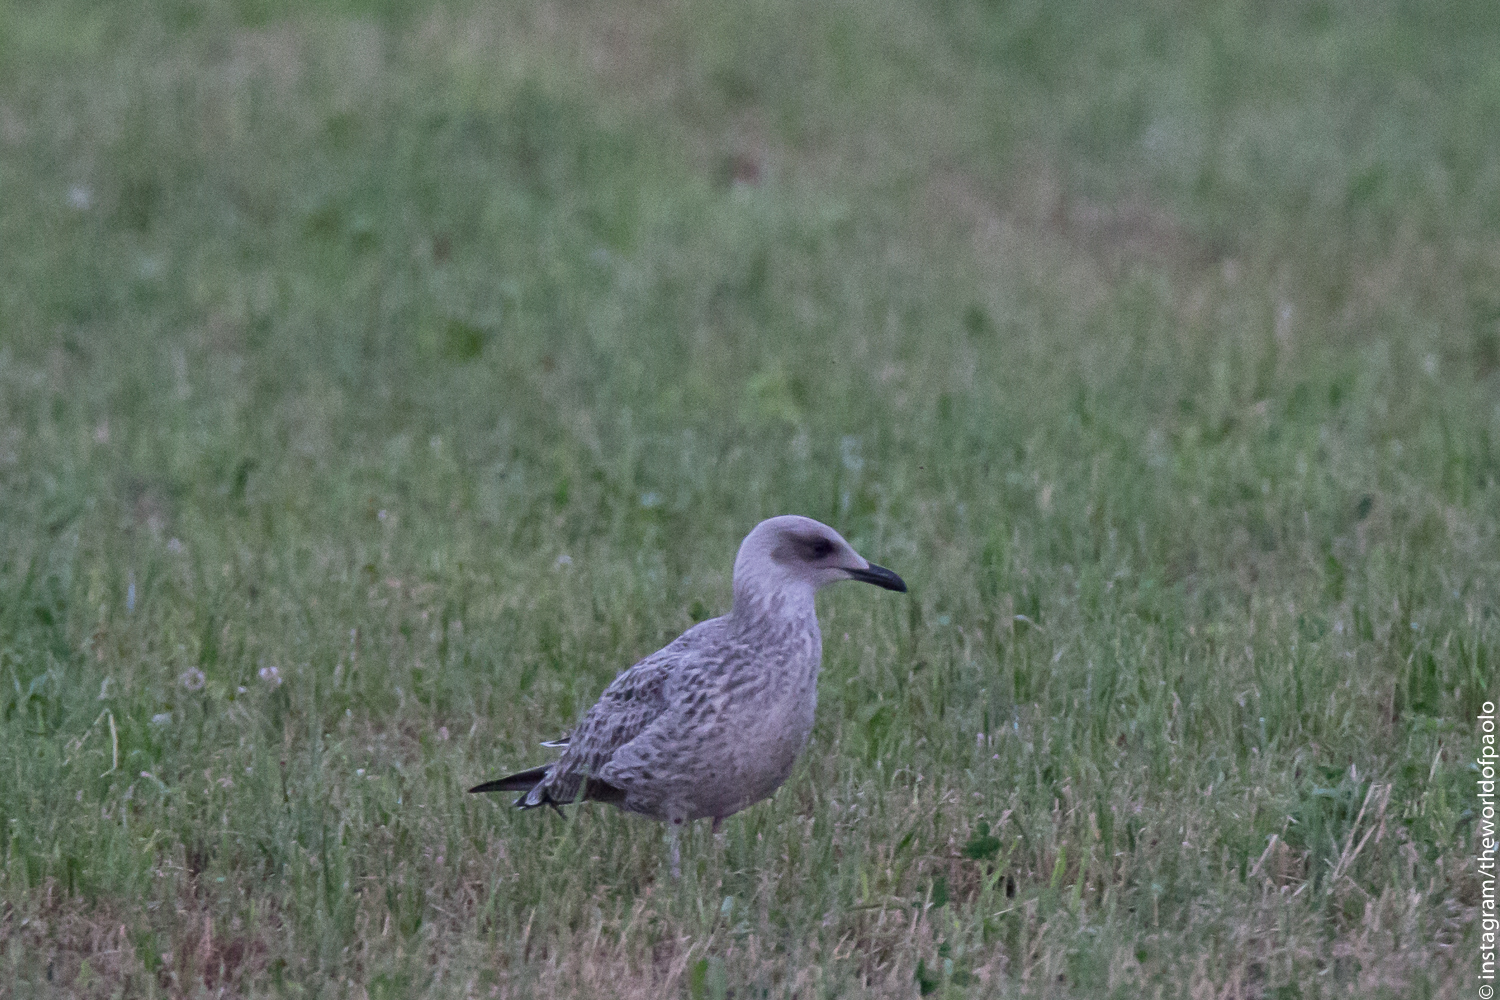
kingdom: Animalia
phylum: Chordata
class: Aves
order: Charadriiformes
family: Laridae
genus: Larus
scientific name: Larus michahellis
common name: Yellow-legged gull
